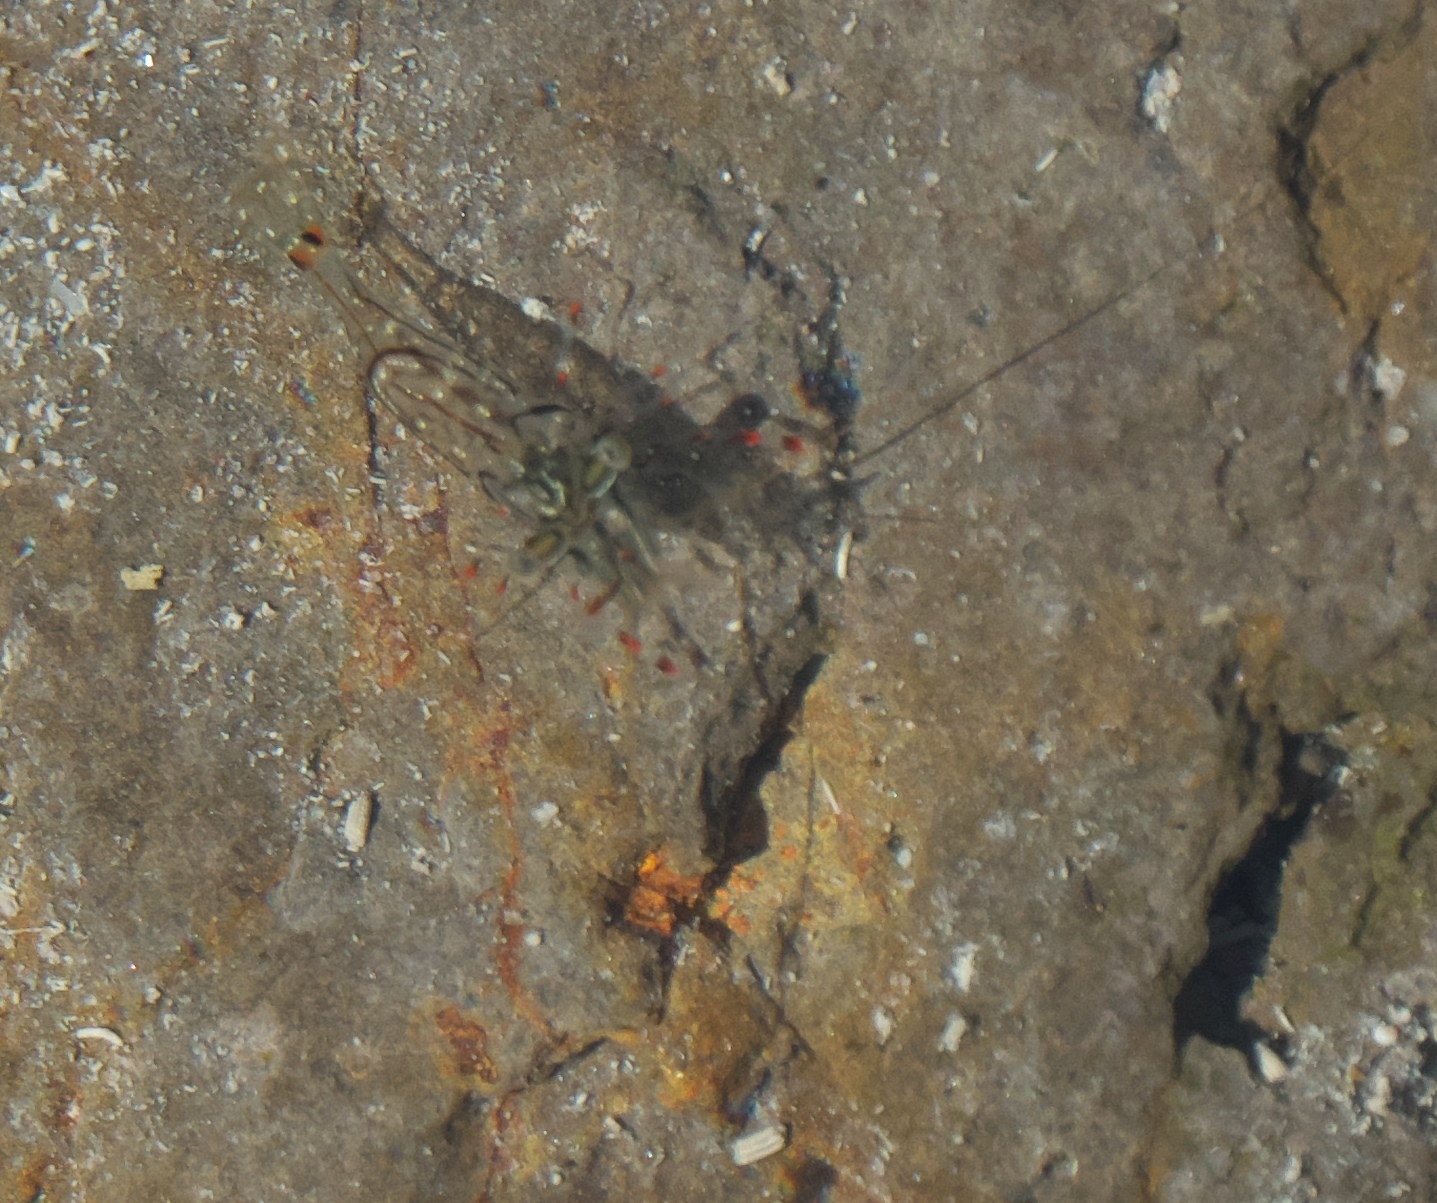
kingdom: Animalia
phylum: Arthropoda
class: Malacostraca
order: Decapoda
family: Palaemonidae
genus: Palaemon
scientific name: Palaemon affinis
